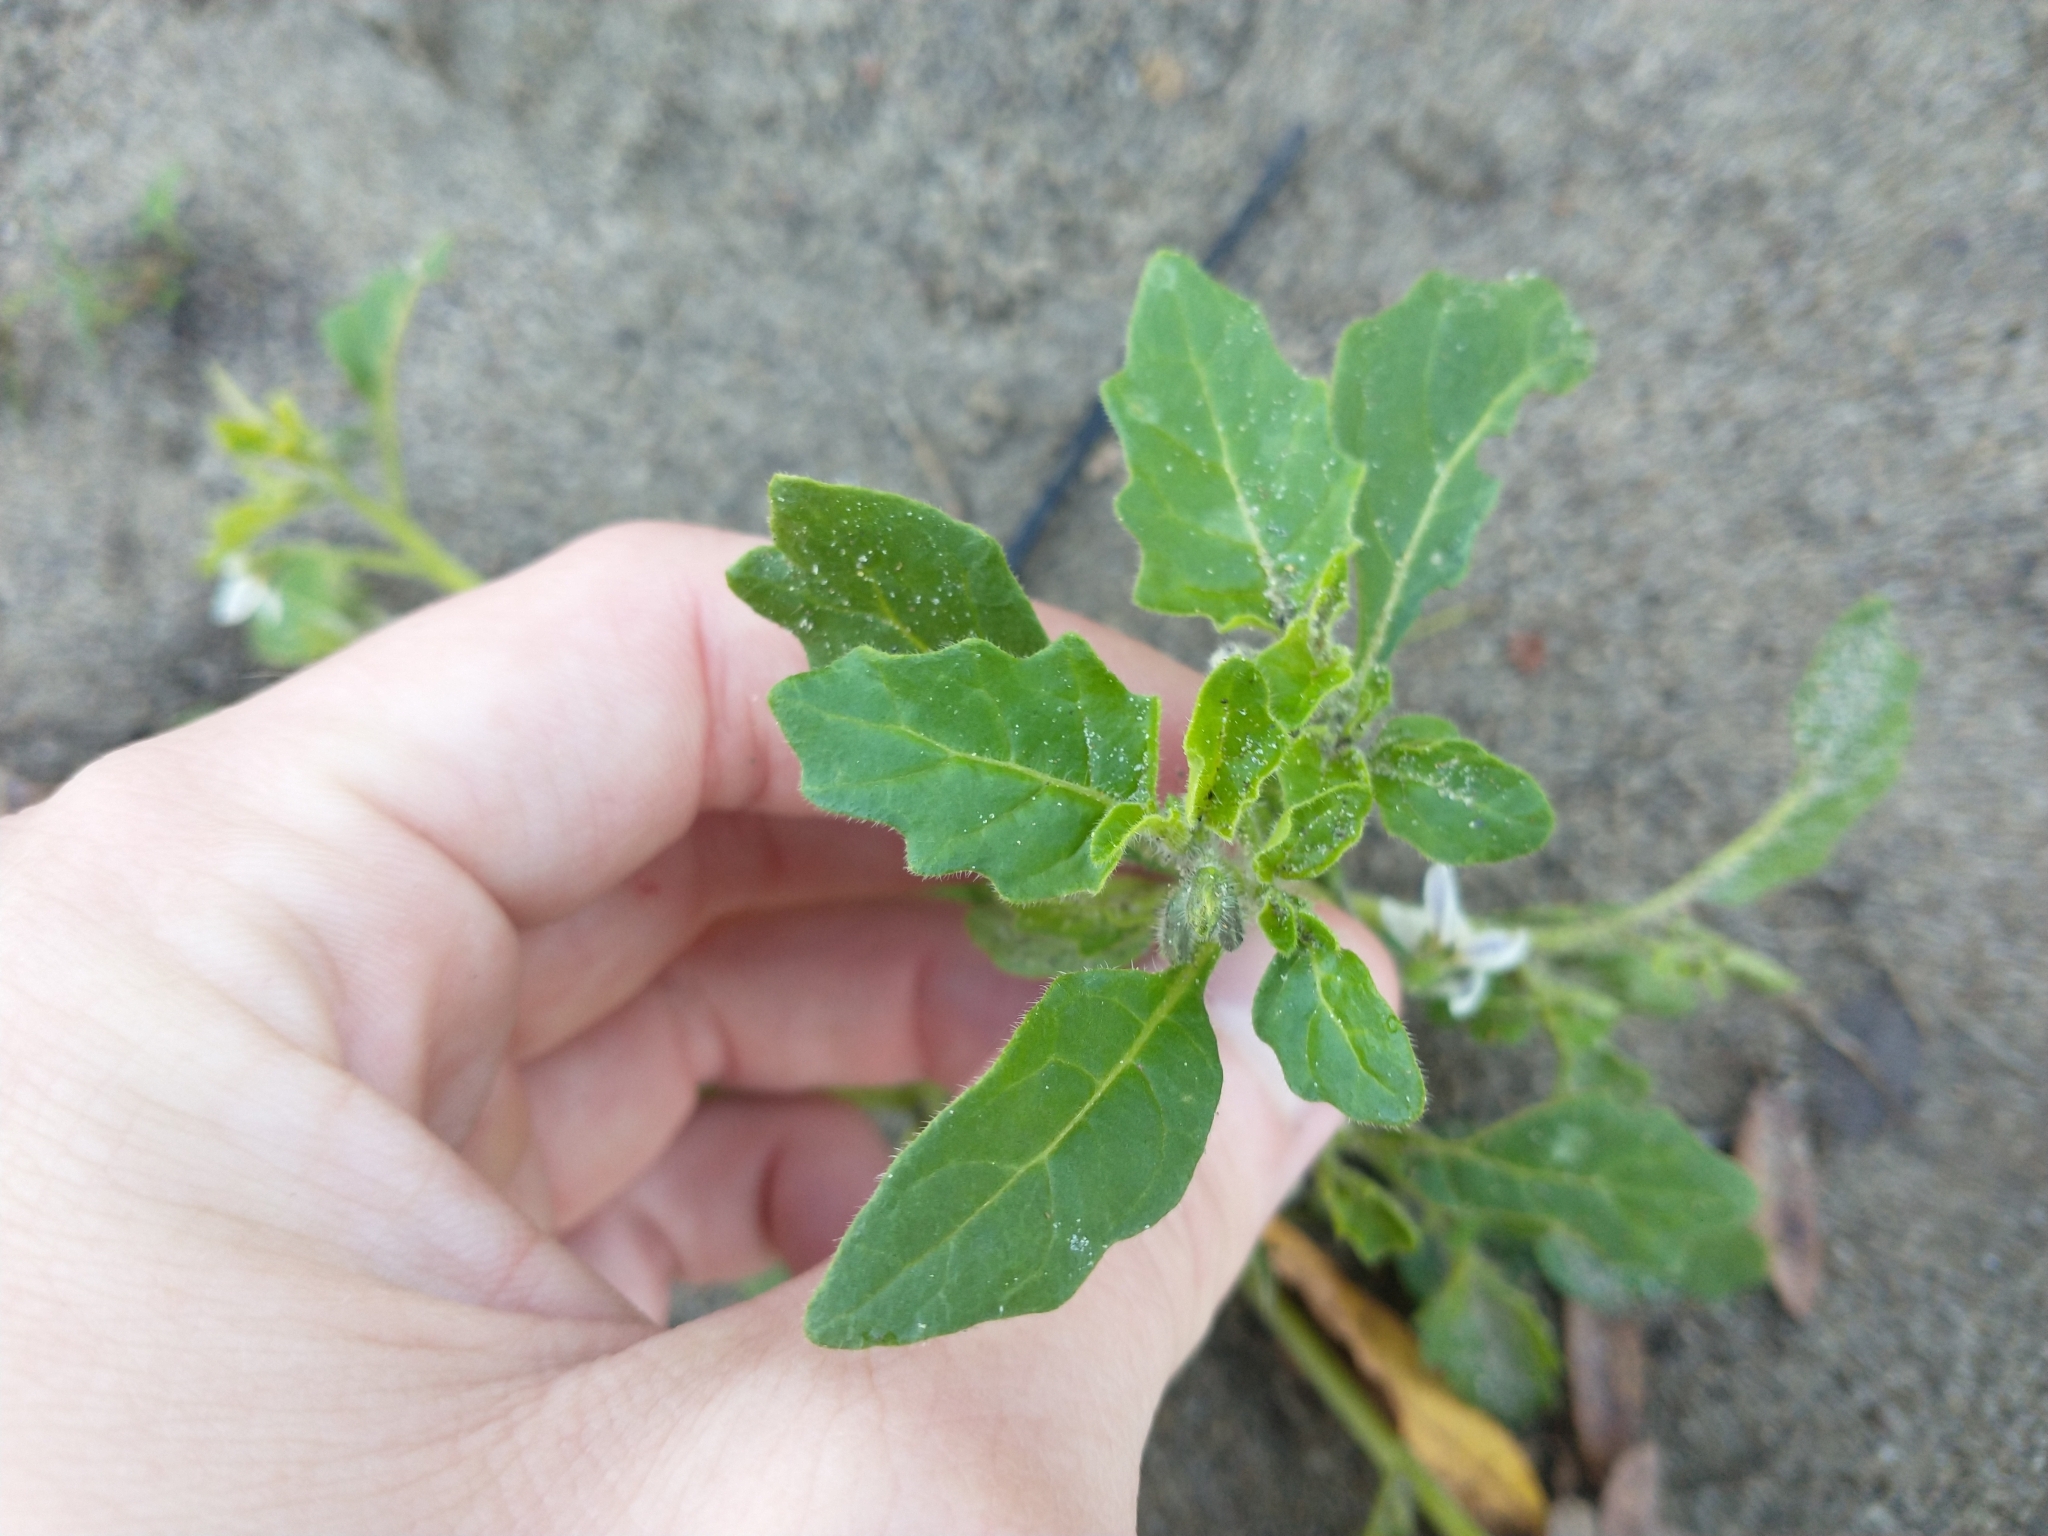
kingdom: Plantae
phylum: Tracheophyta
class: Magnoliopsida
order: Solanales
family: Solanaceae
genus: Solanum
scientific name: Solanum nitidibaccatum
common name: Hairy nightshade
